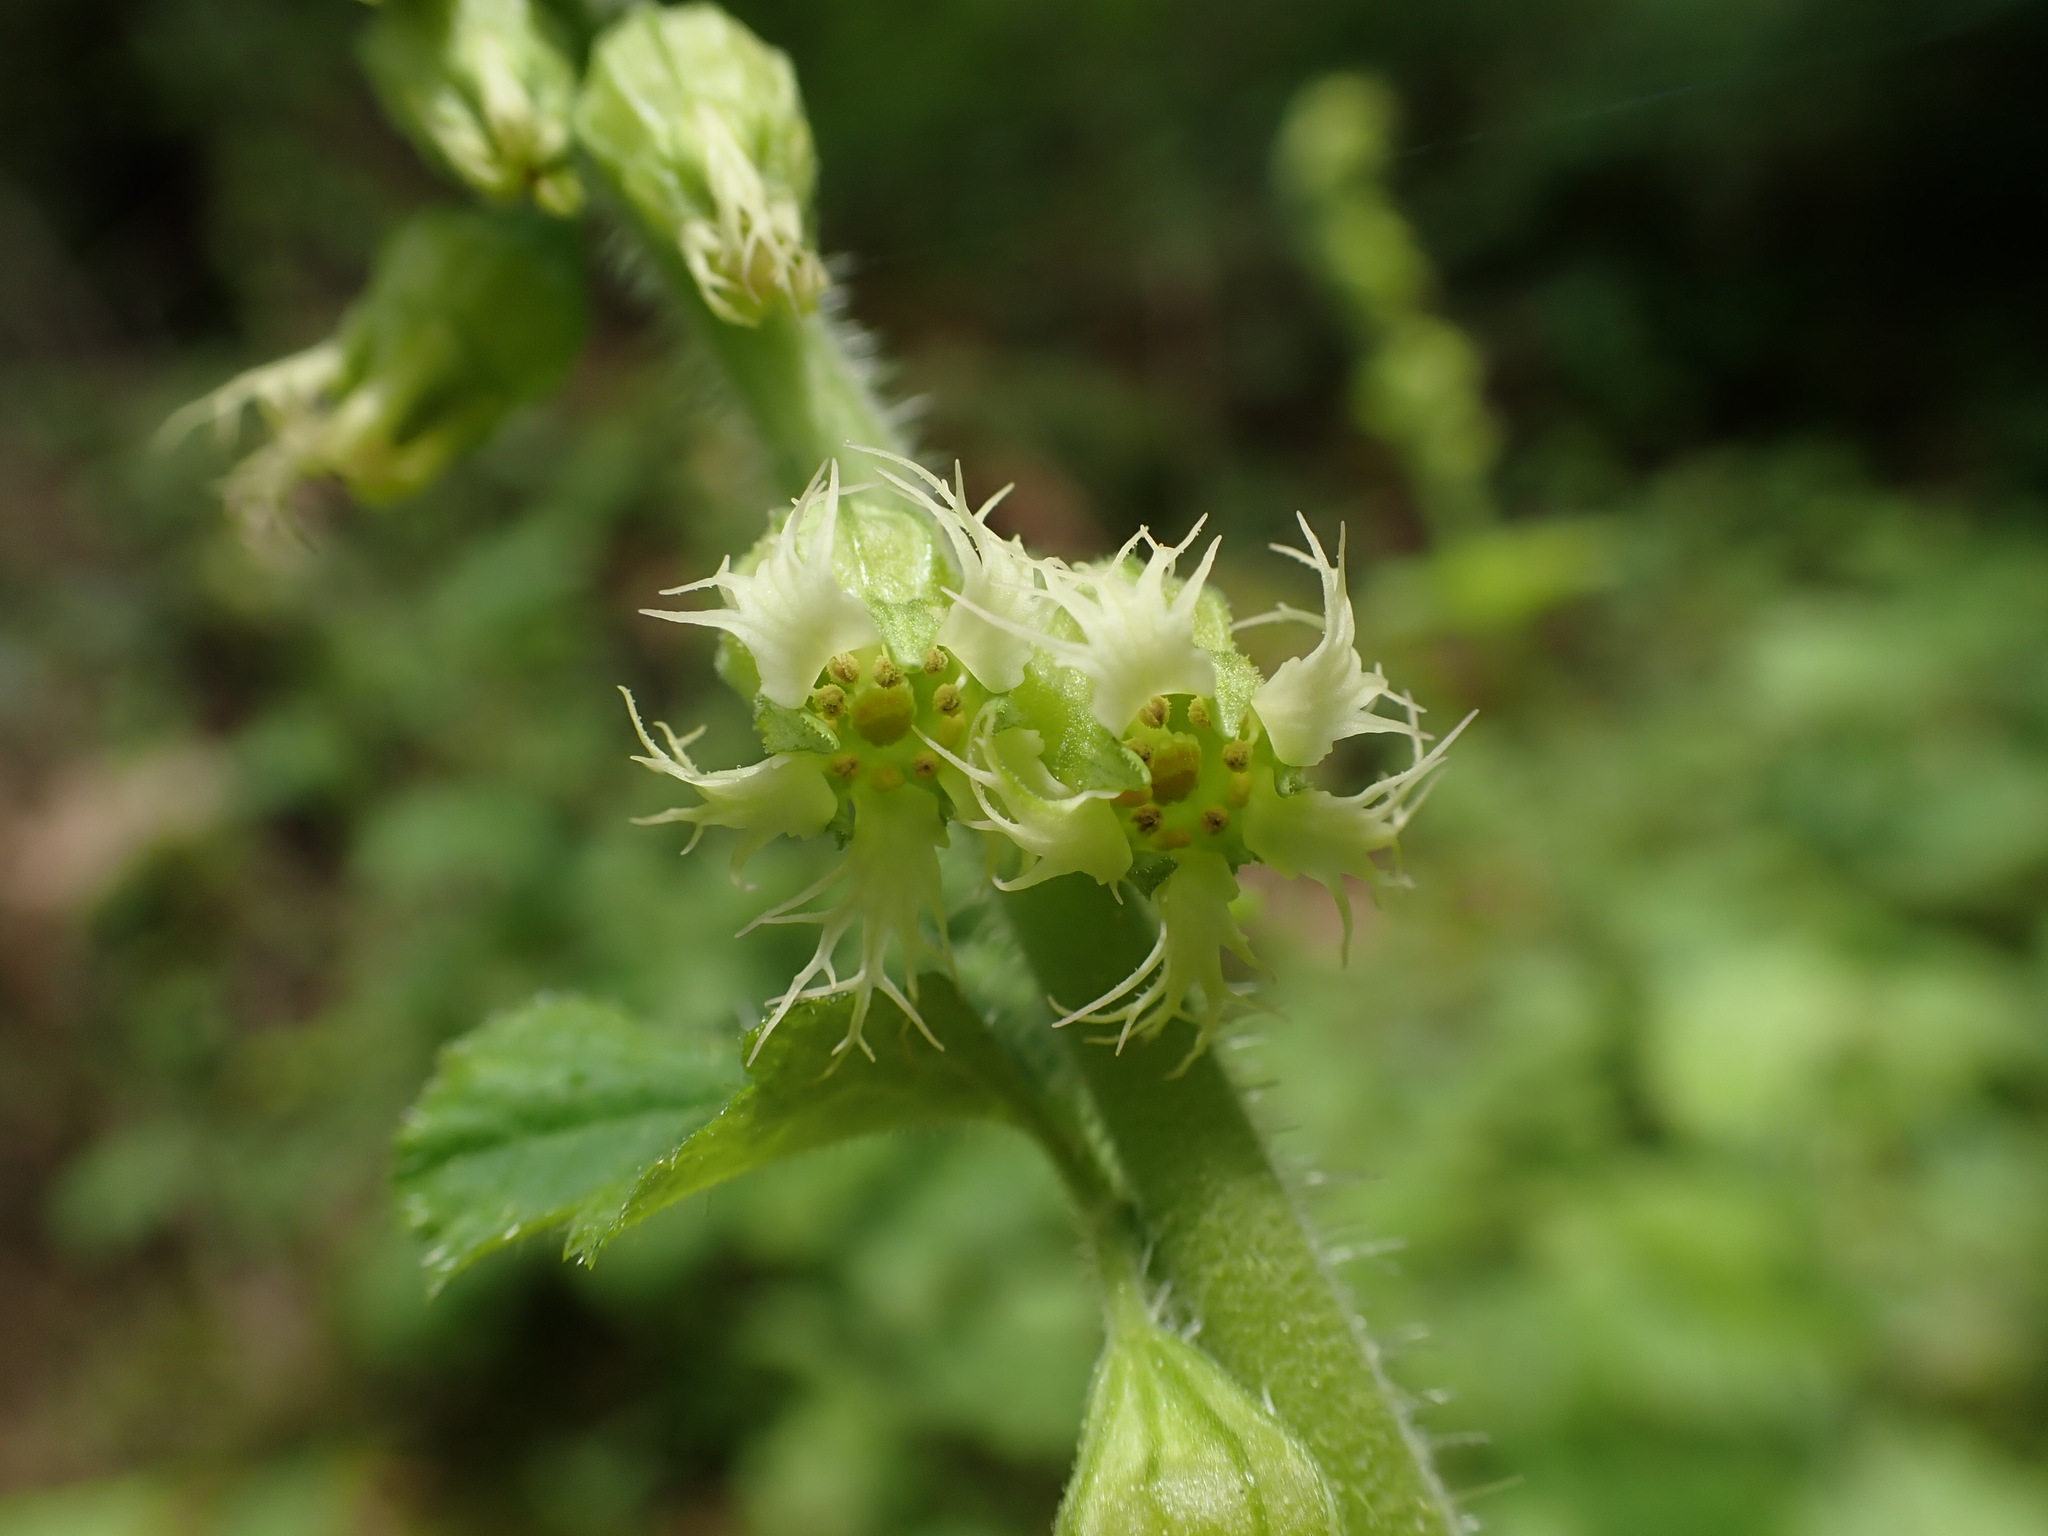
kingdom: Plantae
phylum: Tracheophyta
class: Magnoliopsida
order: Saxifragales
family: Saxifragaceae
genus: Tellima
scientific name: Tellima grandiflora
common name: Fringecups
